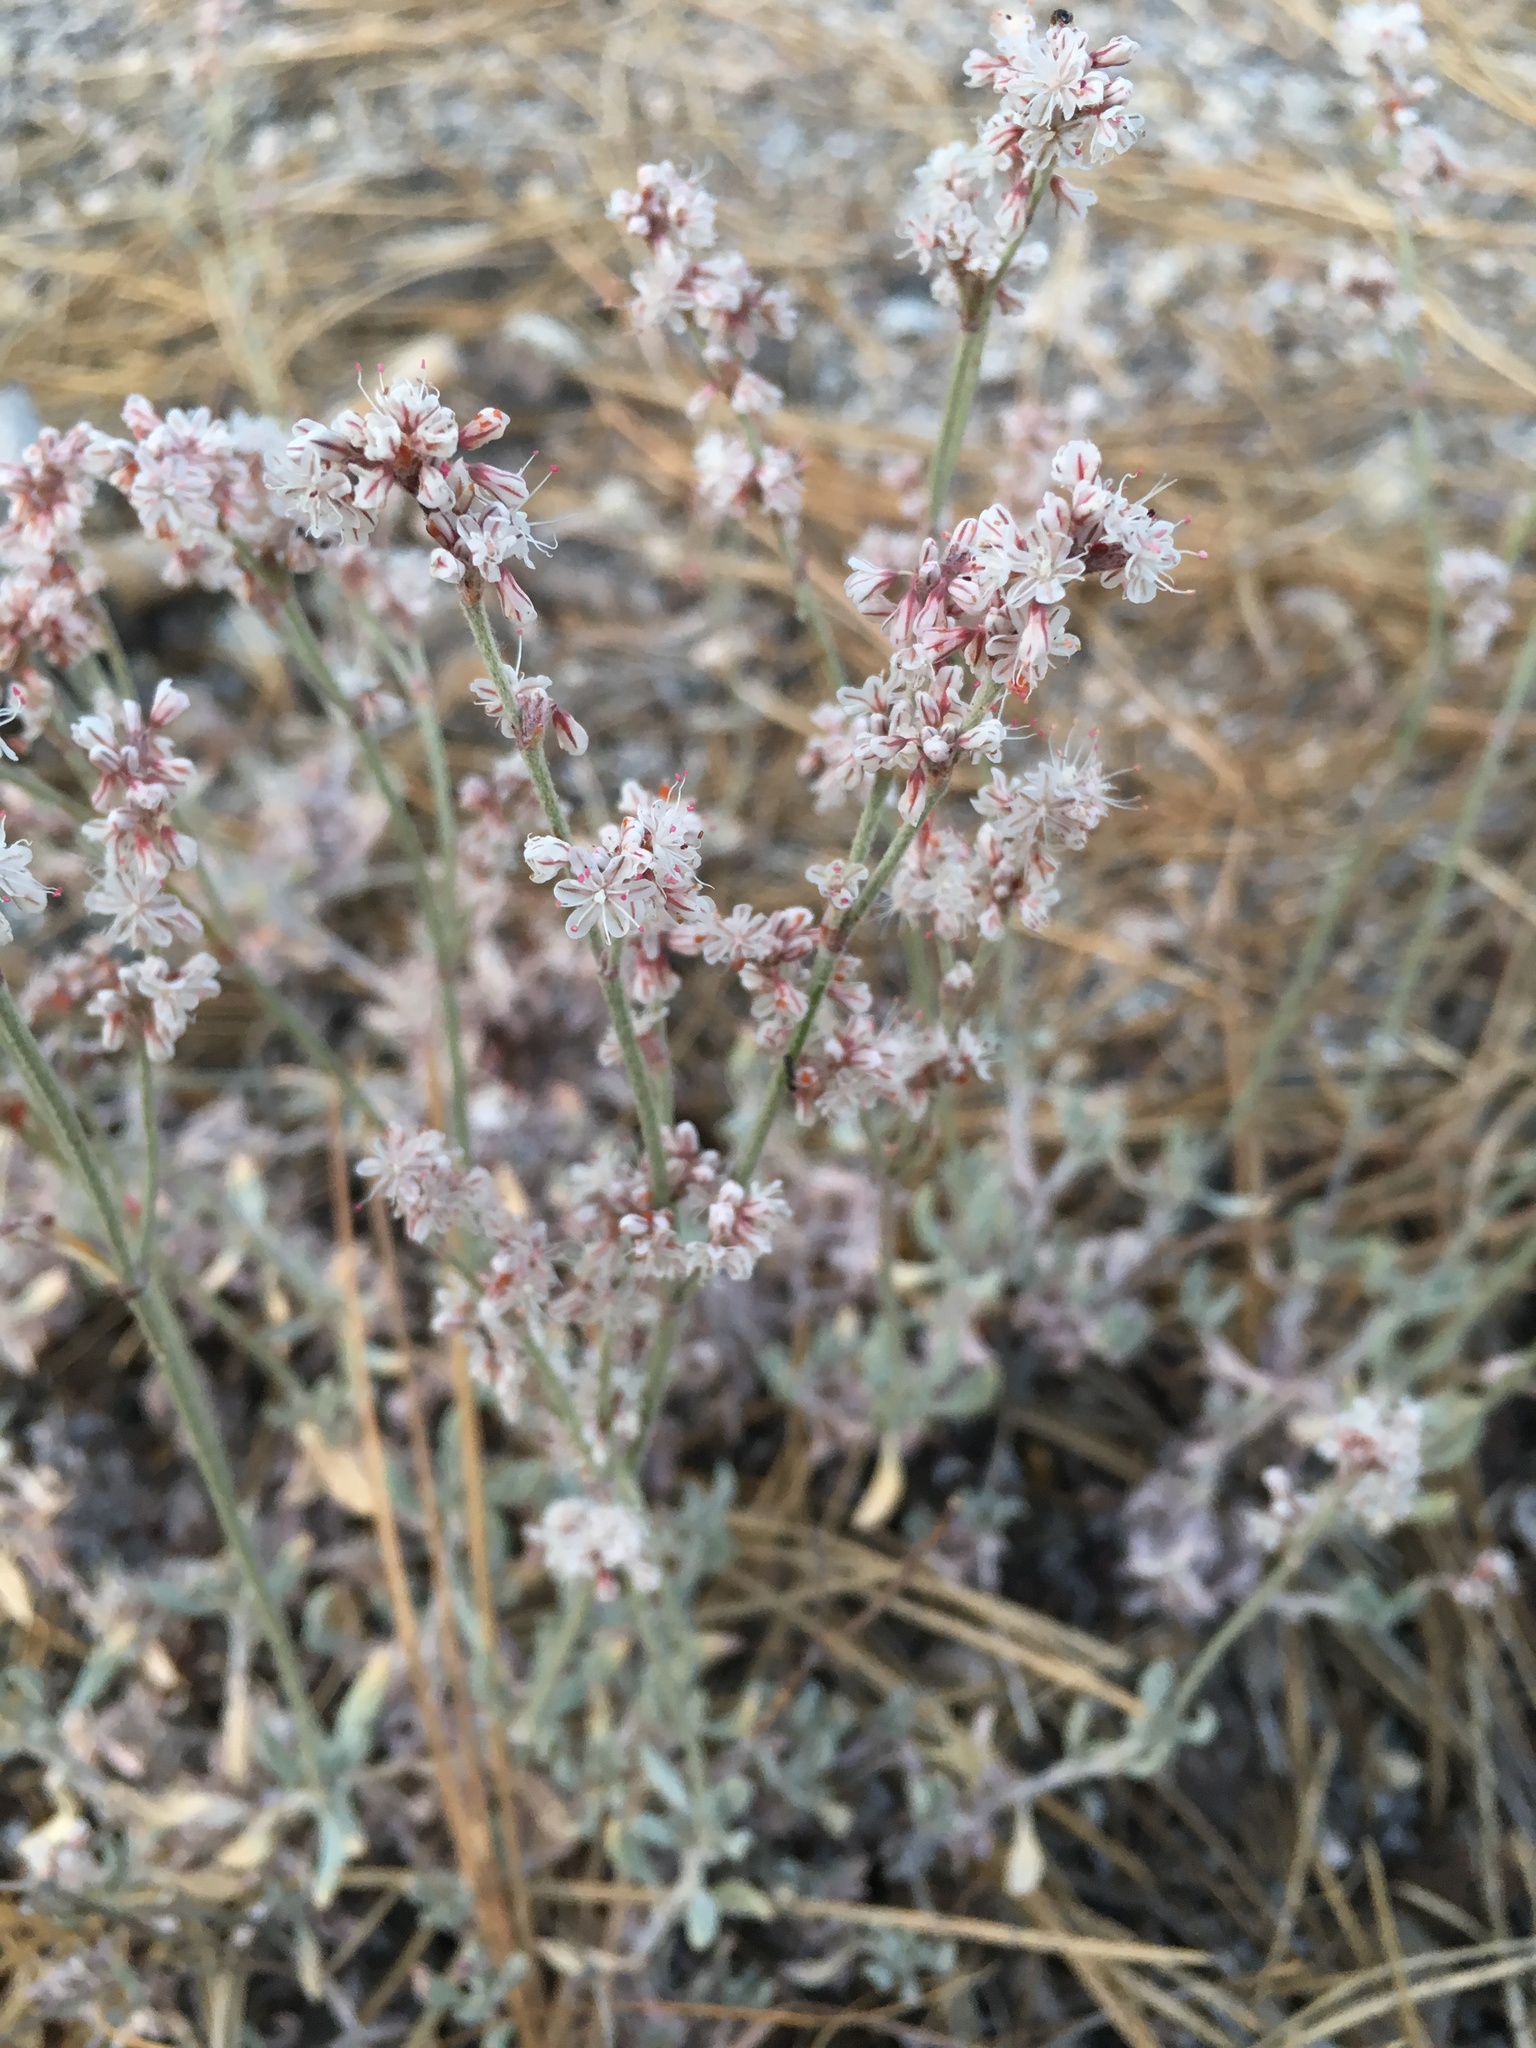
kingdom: Plantae
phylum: Tracheophyta
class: Magnoliopsida
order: Caryophyllales
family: Polygonaceae
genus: Eriogonum
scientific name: Eriogonum wrightii
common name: Bastard-sage
